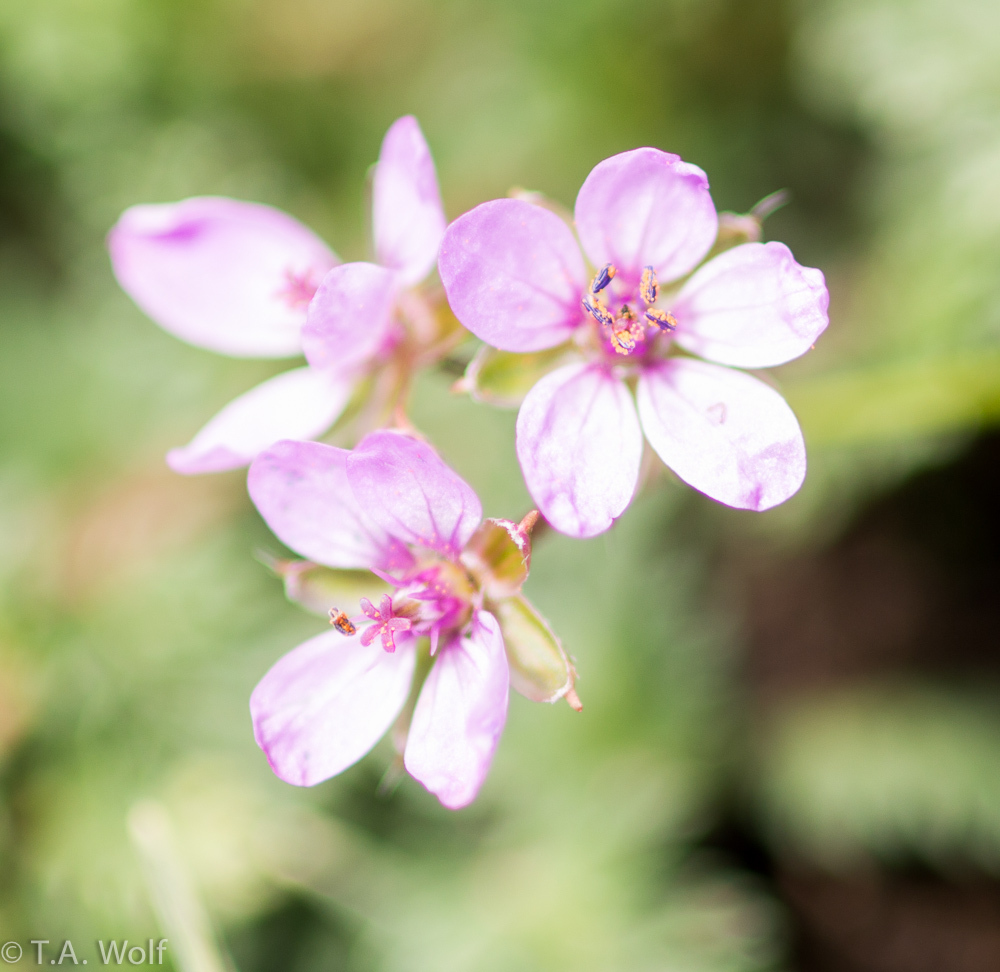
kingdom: Plantae
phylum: Tracheophyta
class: Magnoliopsida
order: Geraniales
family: Geraniaceae
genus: Erodium
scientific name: Erodium cicutarium
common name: Common stork's-bill
